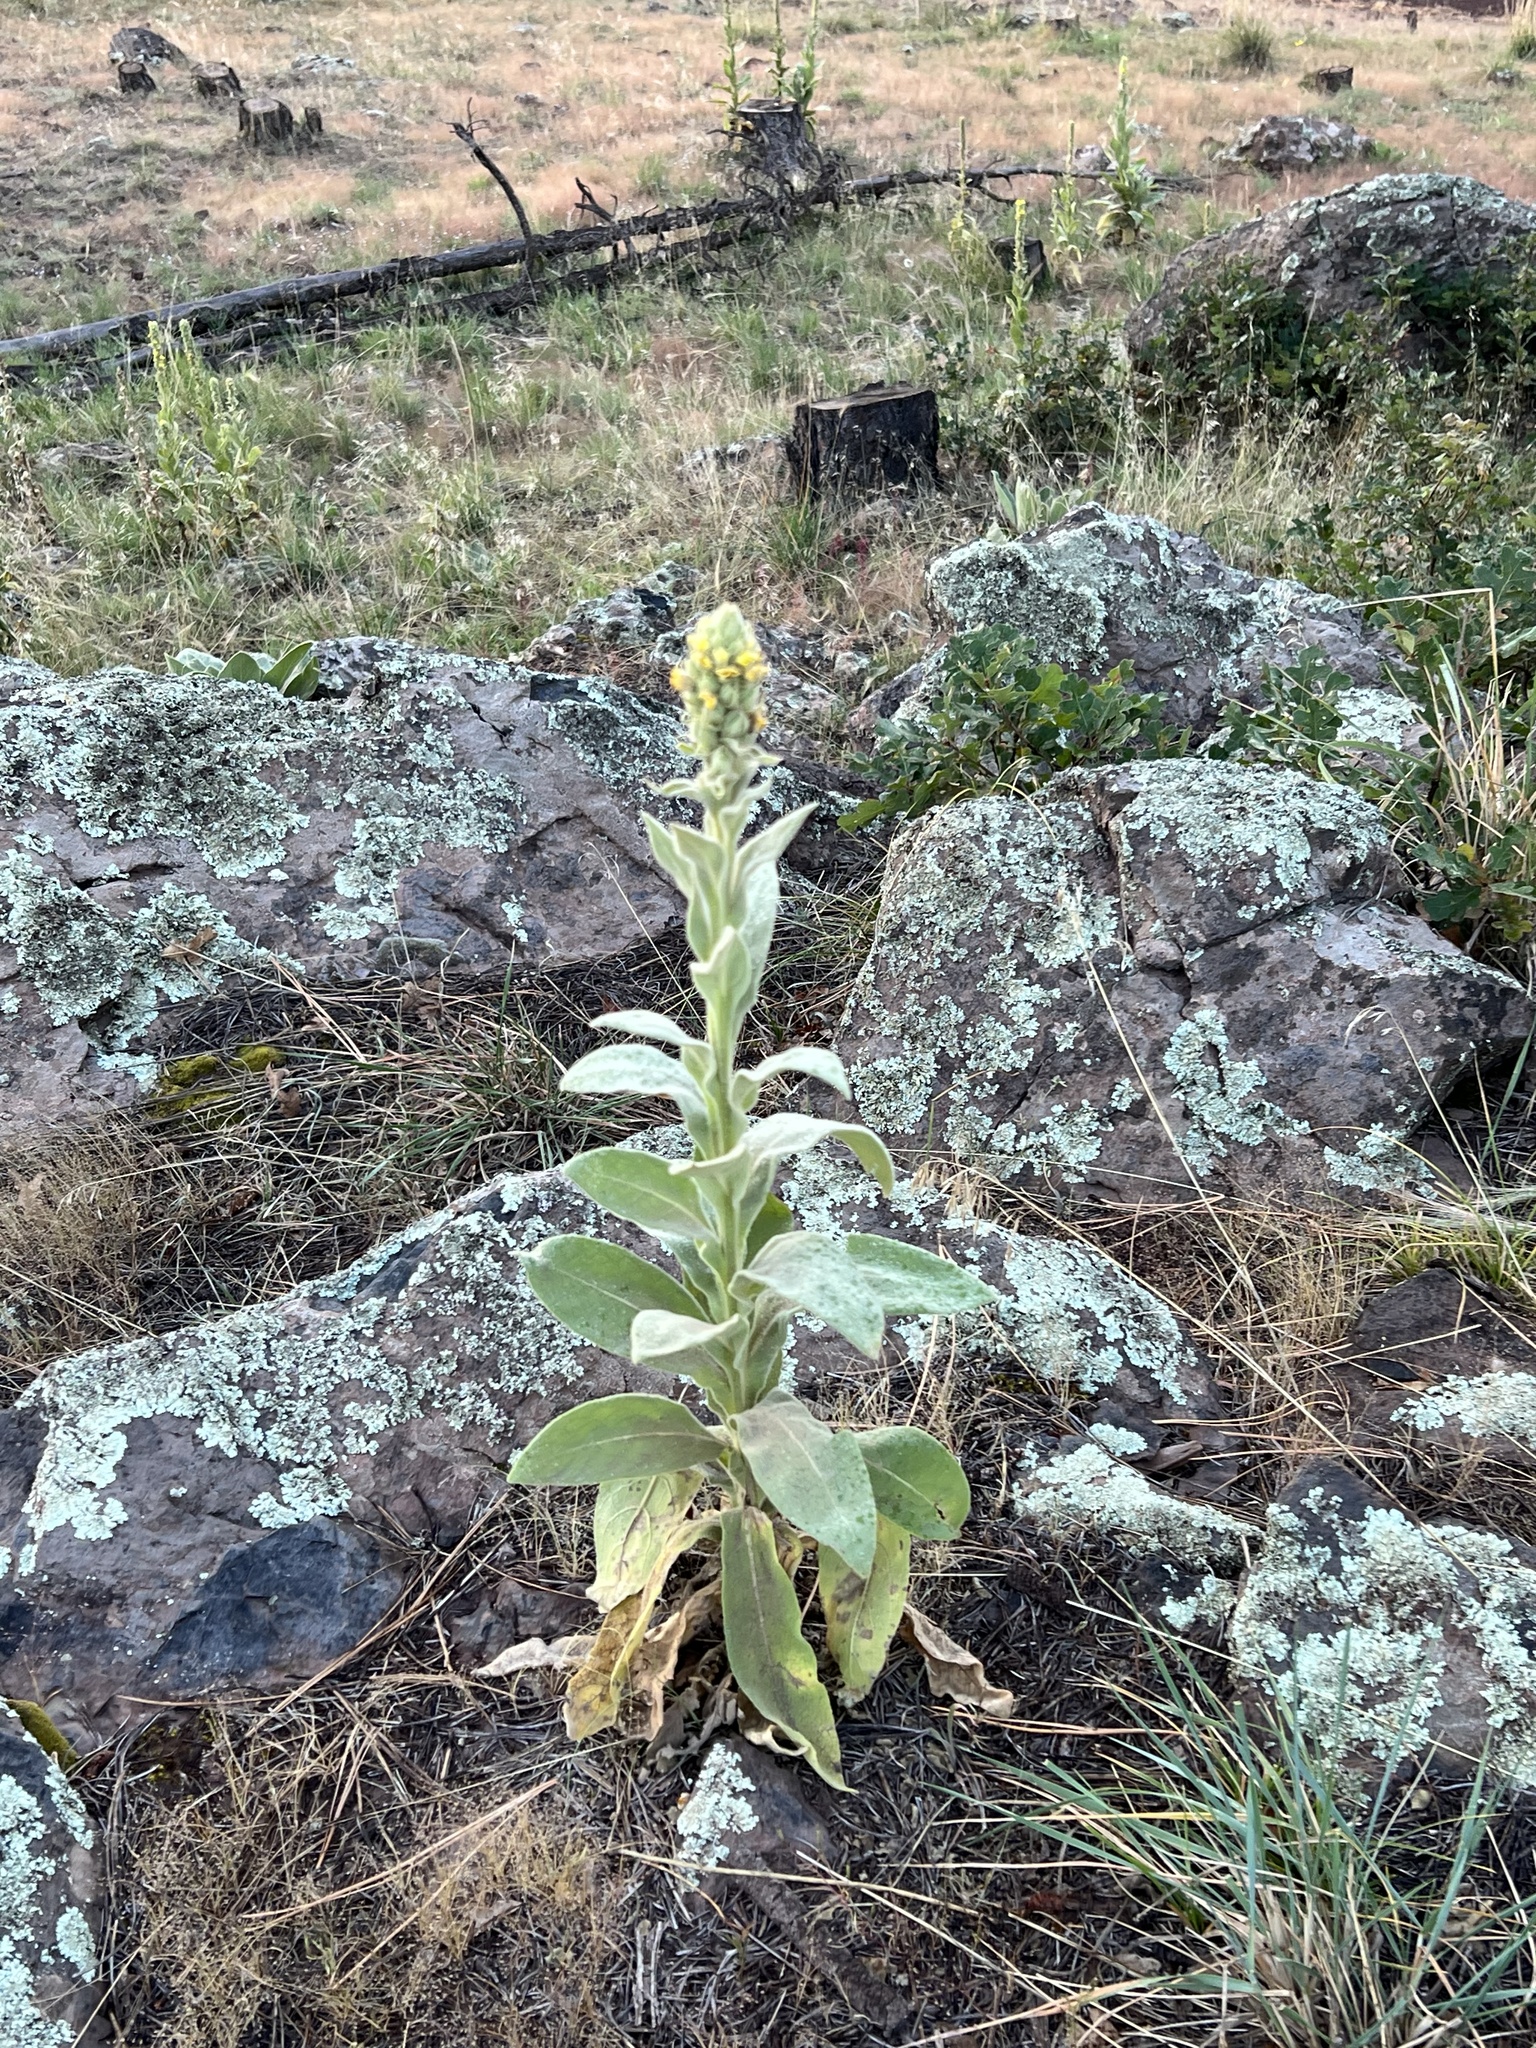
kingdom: Plantae
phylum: Tracheophyta
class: Magnoliopsida
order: Lamiales
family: Scrophulariaceae
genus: Verbascum
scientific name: Verbascum thapsus
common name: Common mullein
